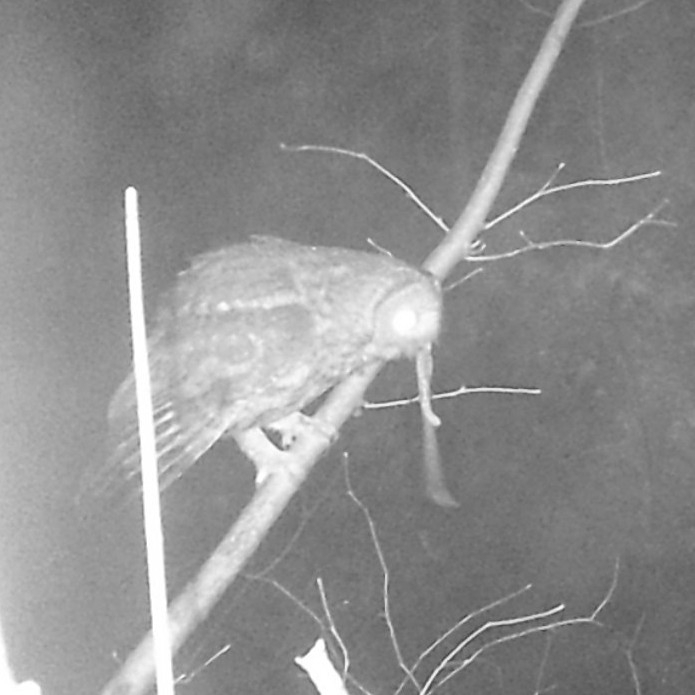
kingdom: Animalia
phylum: Chordata
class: Aves
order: Strigiformes
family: Strigidae
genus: Strix
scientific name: Strix aluco
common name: Tawny owl
